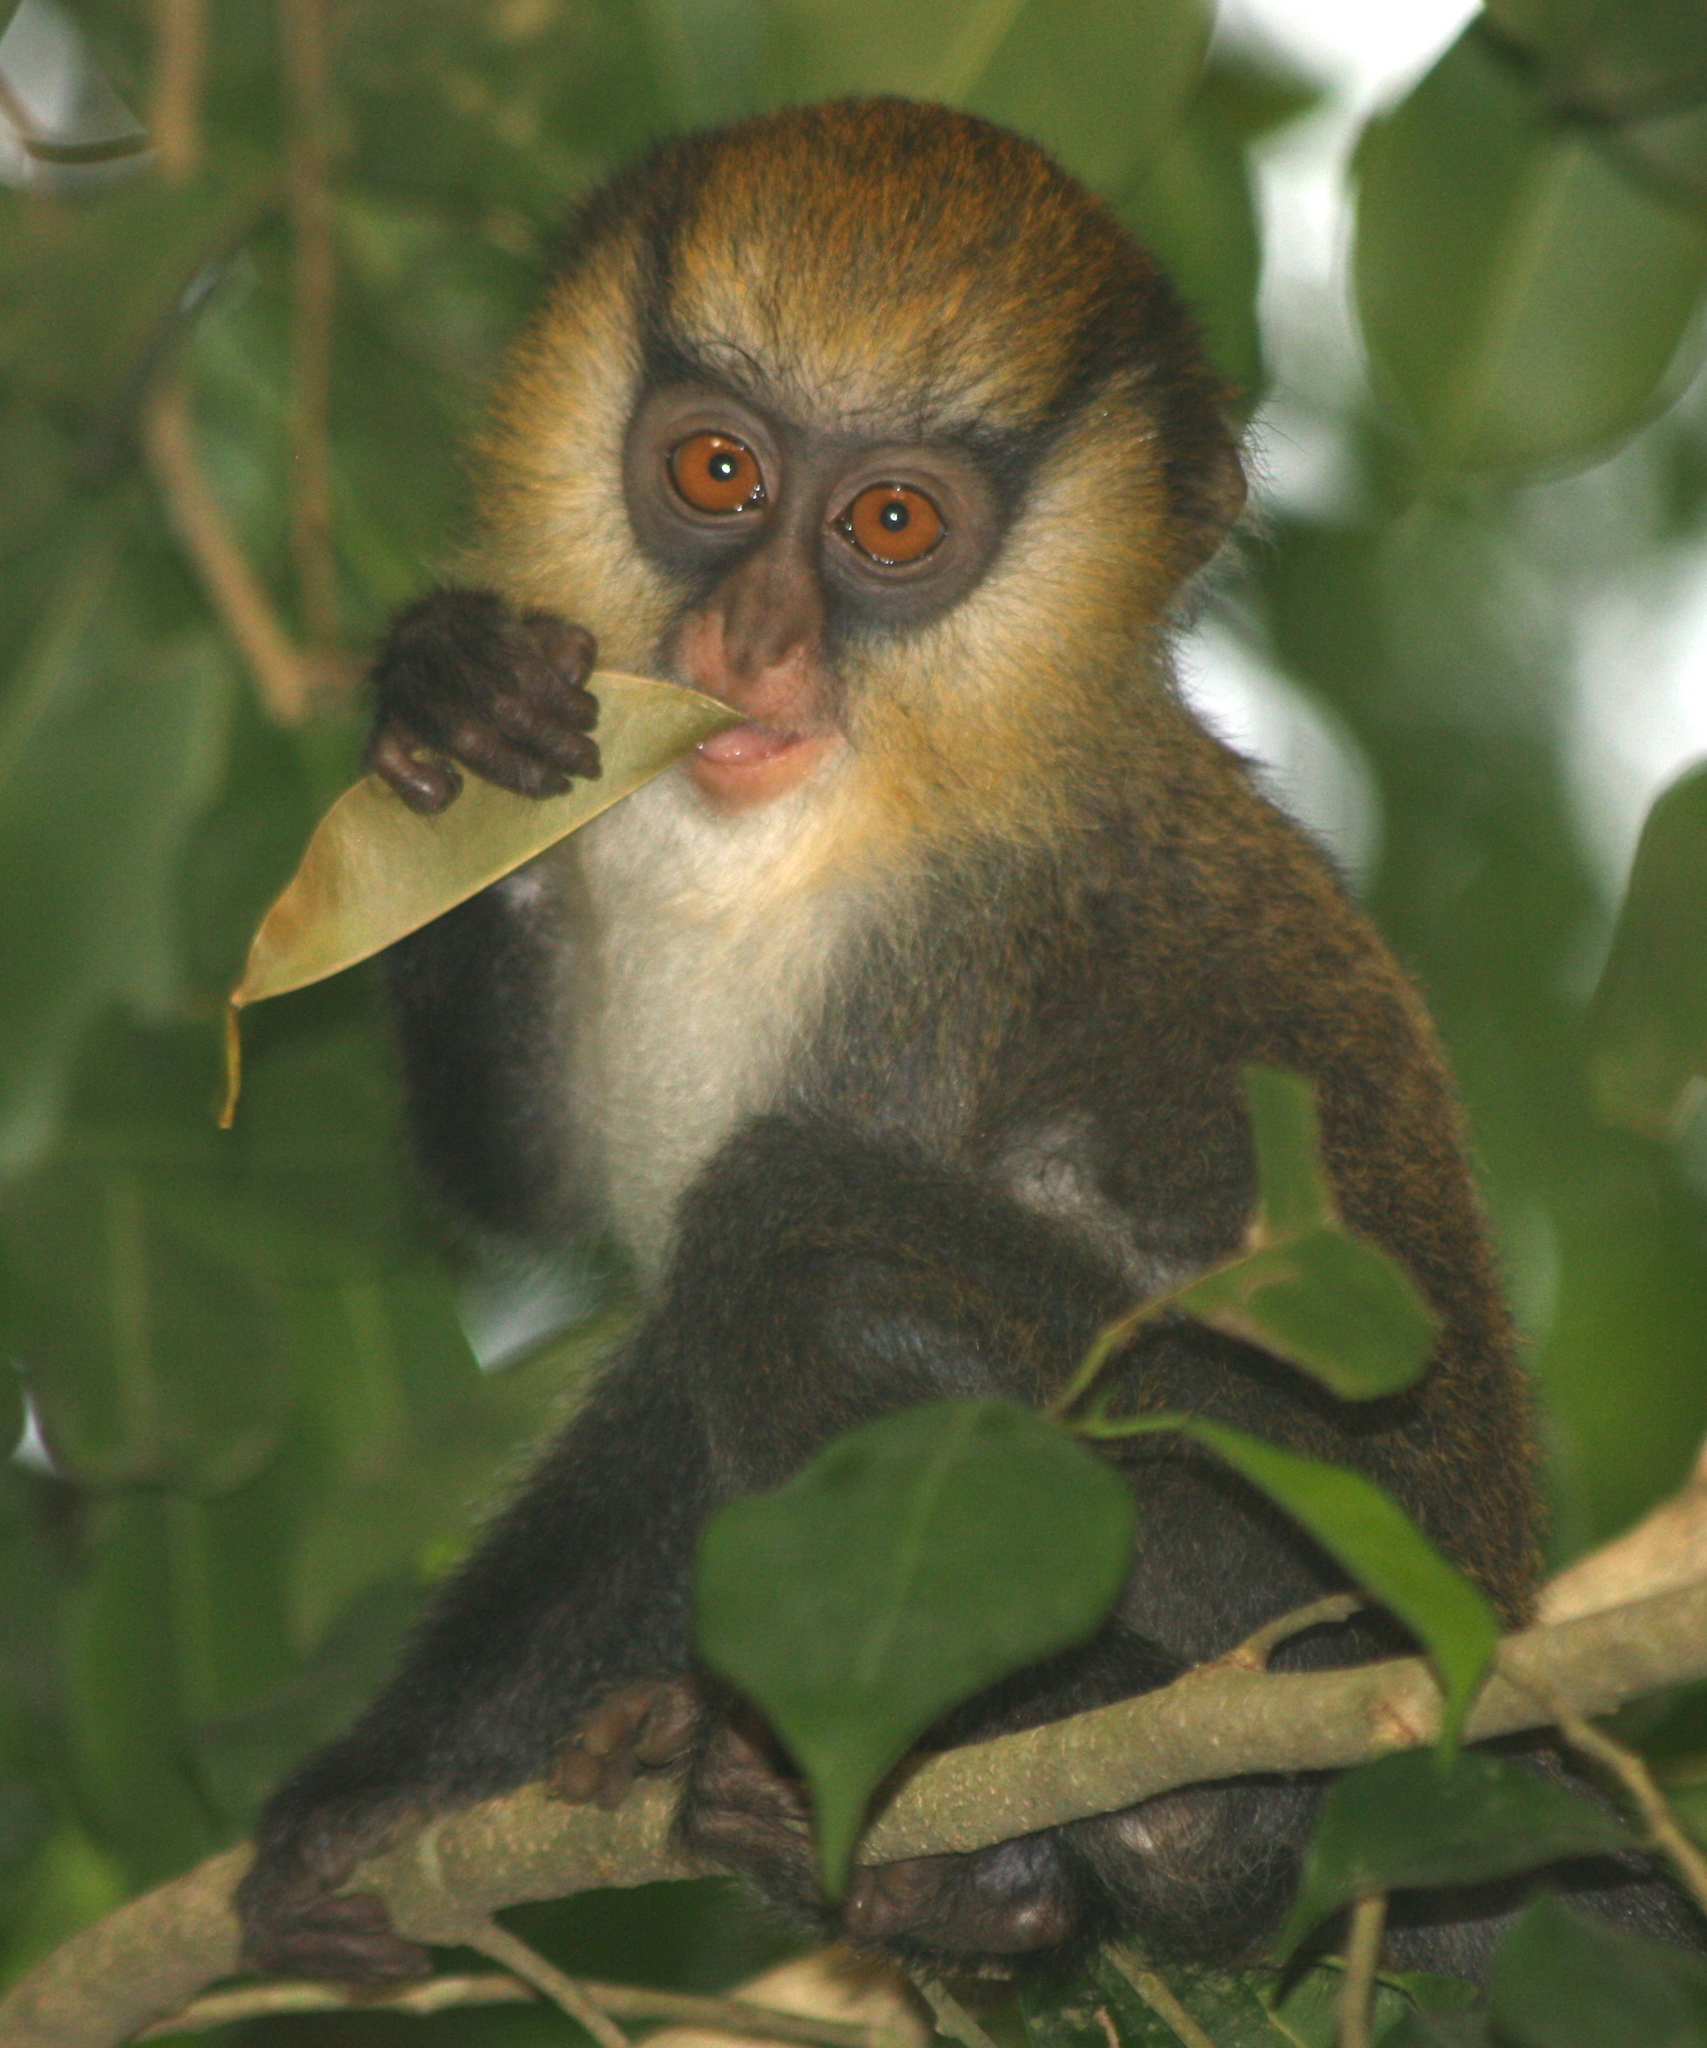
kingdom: Animalia
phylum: Chordata
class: Mammalia
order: Primates
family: Cercopithecidae
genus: Cercopithecus
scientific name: Cercopithecus campbelli
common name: Campbell's monkey
